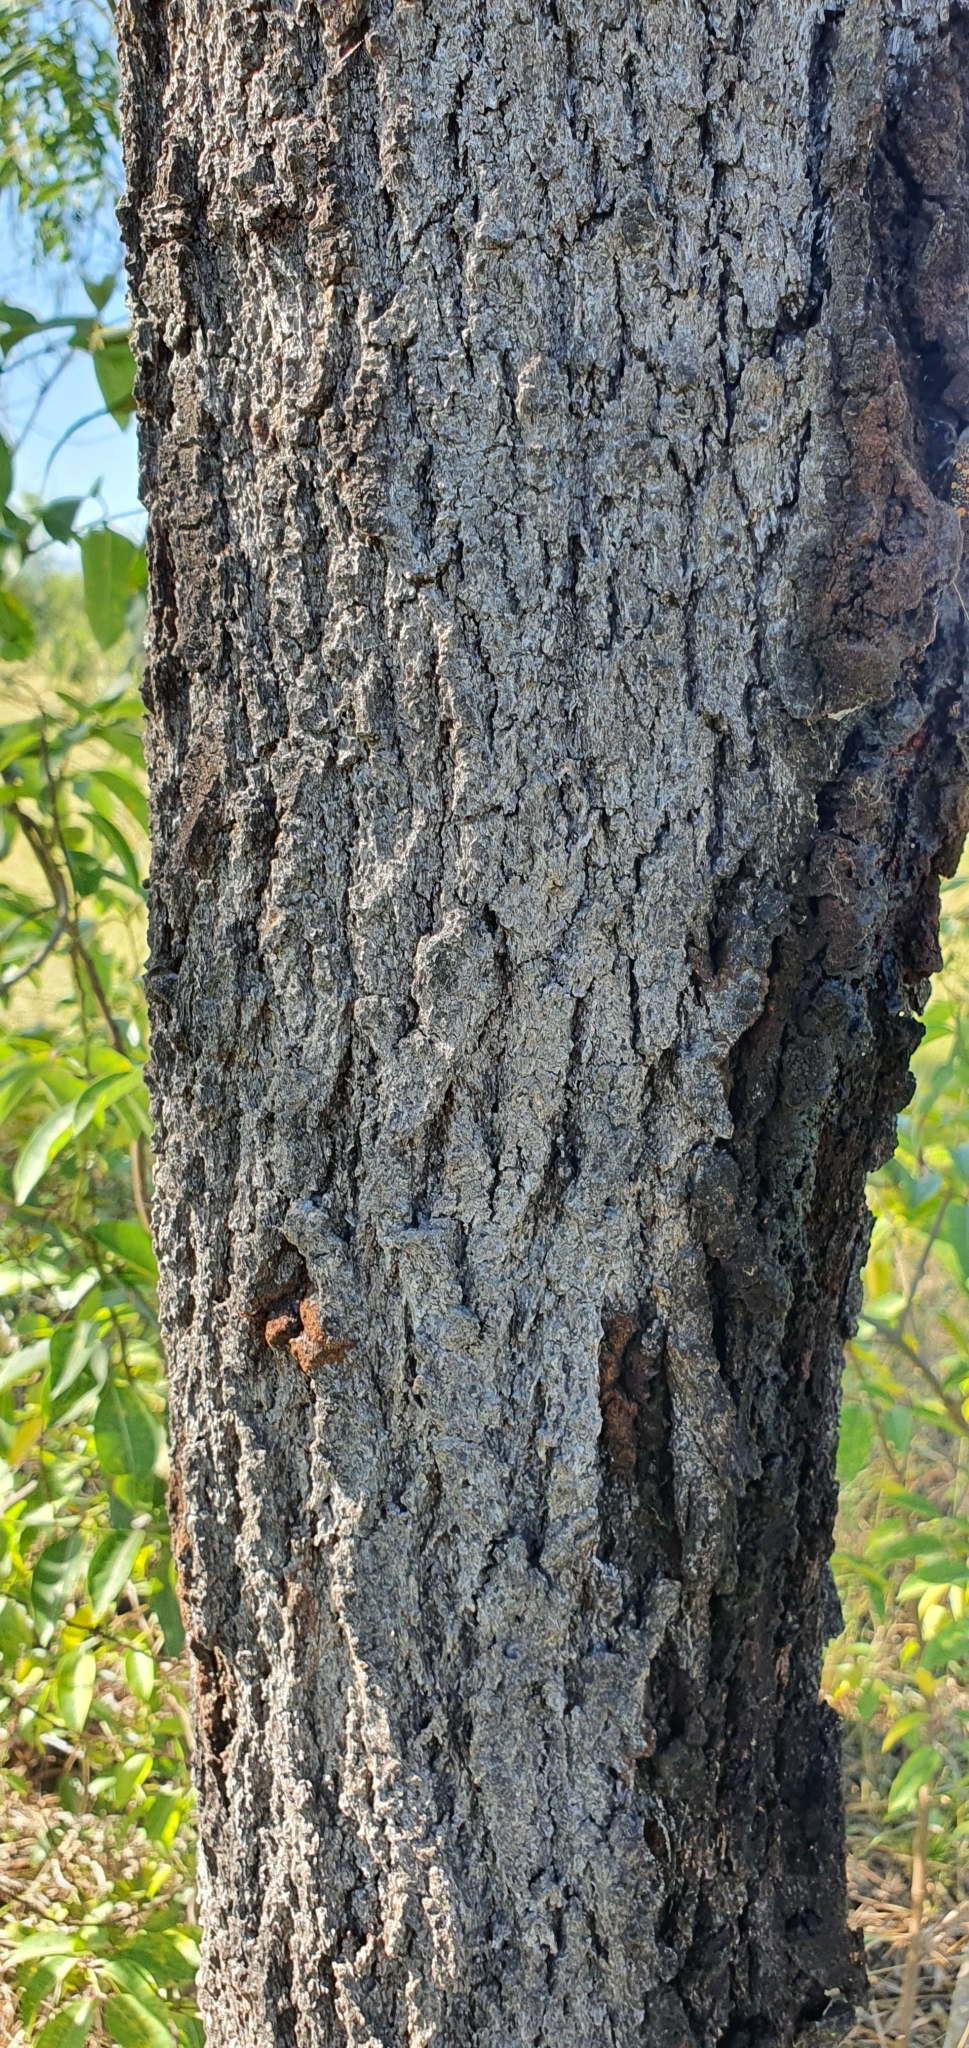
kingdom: Plantae
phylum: Tracheophyta
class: Magnoliopsida
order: Proteales
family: Proteaceae
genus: Grevillea
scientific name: Grevillea striata
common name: Beefwood
